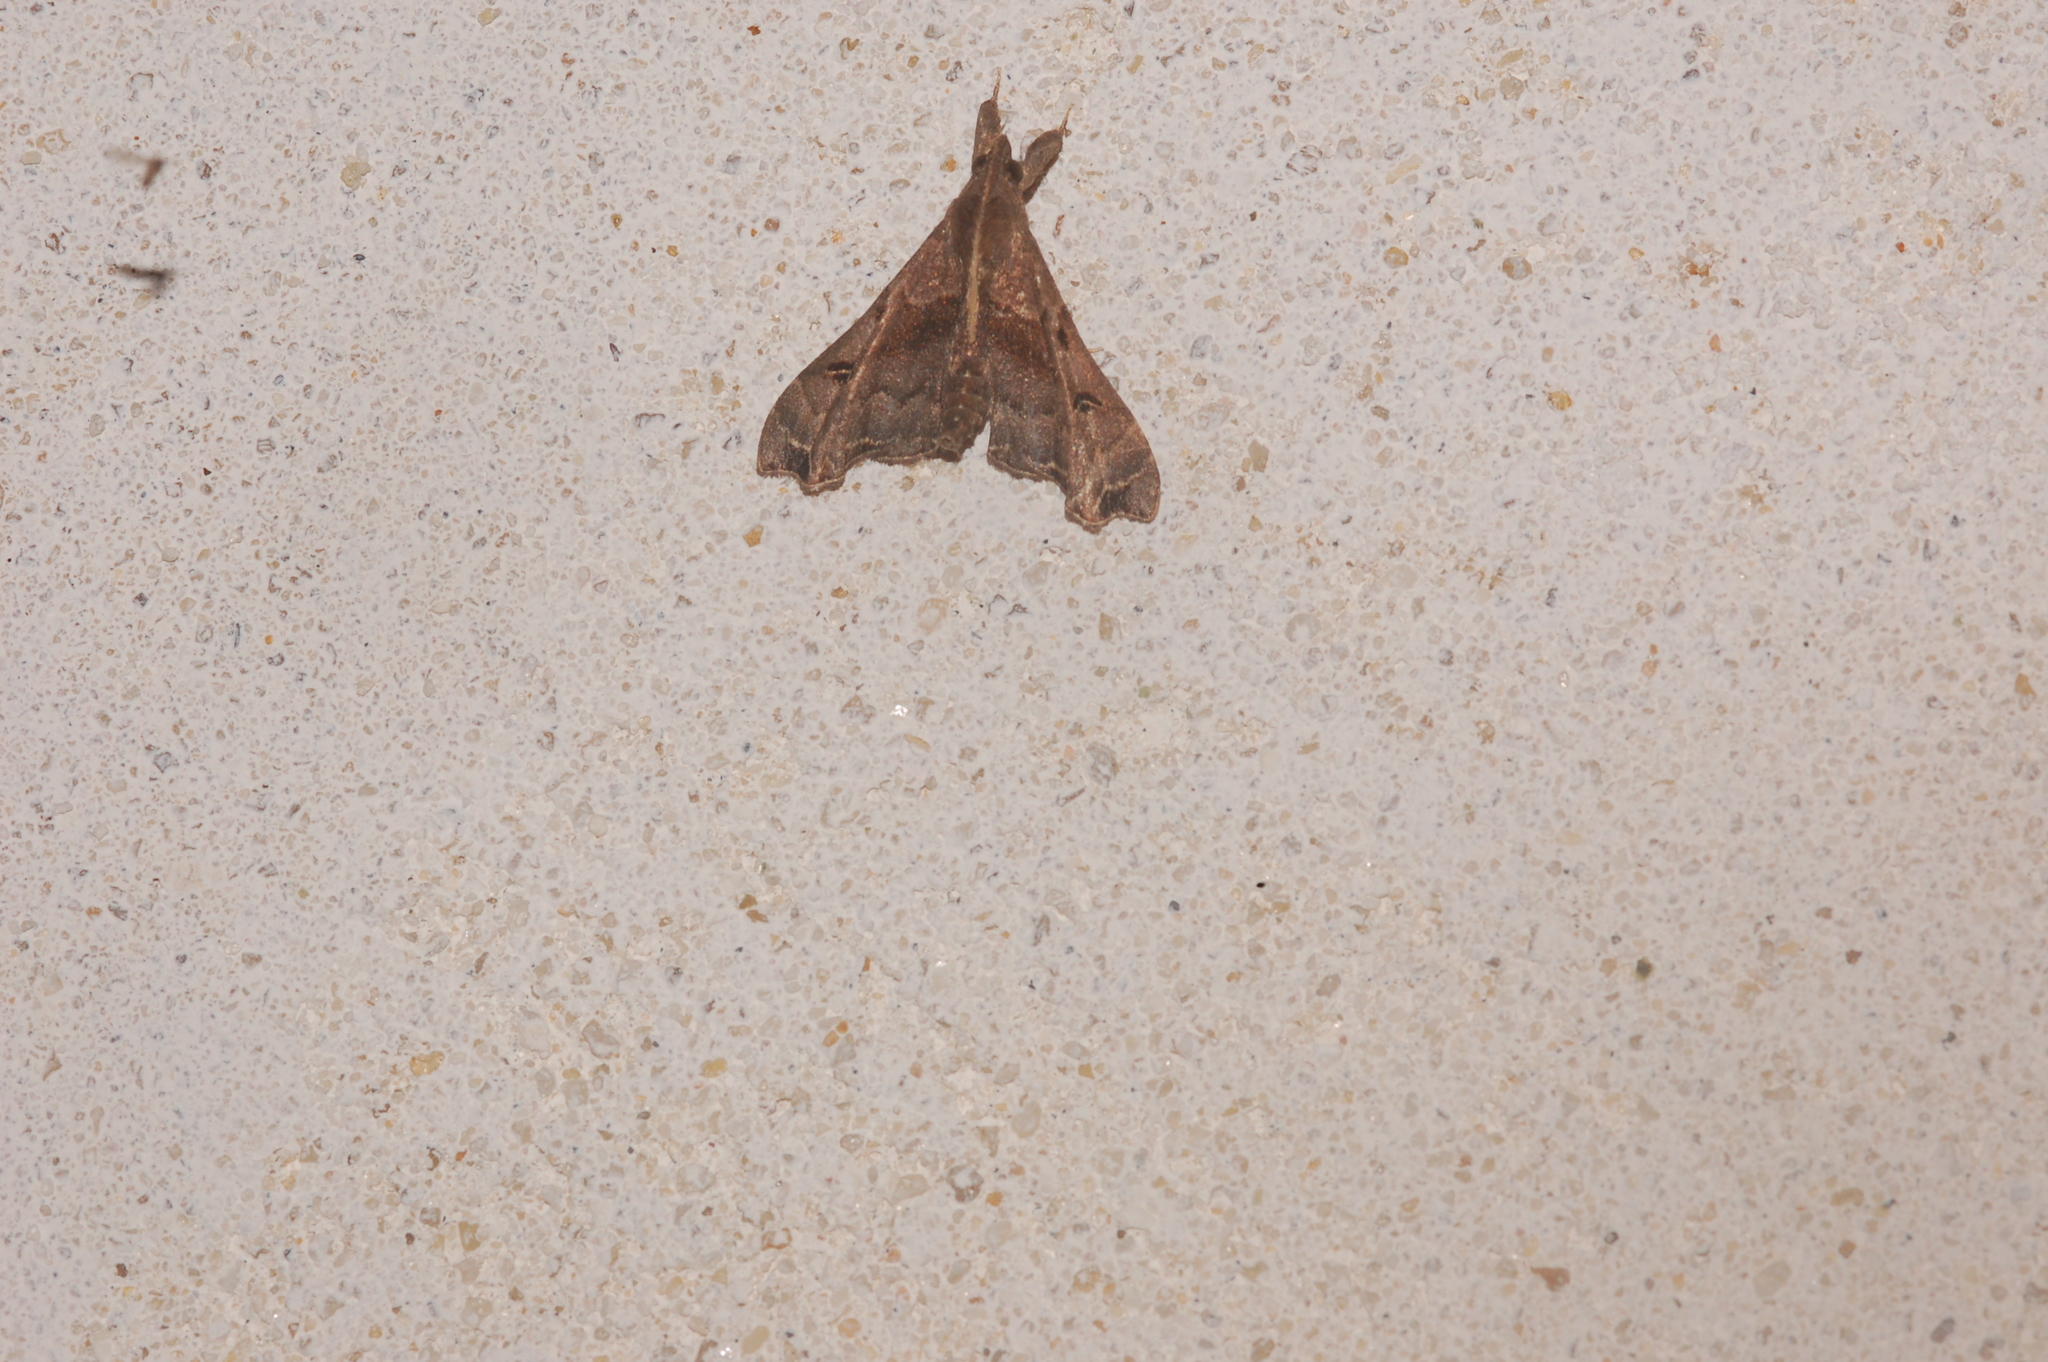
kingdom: Animalia
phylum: Arthropoda
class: Insecta
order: Lepidoptera
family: Erebidae
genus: Palthis
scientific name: Palthis asopialis
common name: Faint-spotted palthis moth
